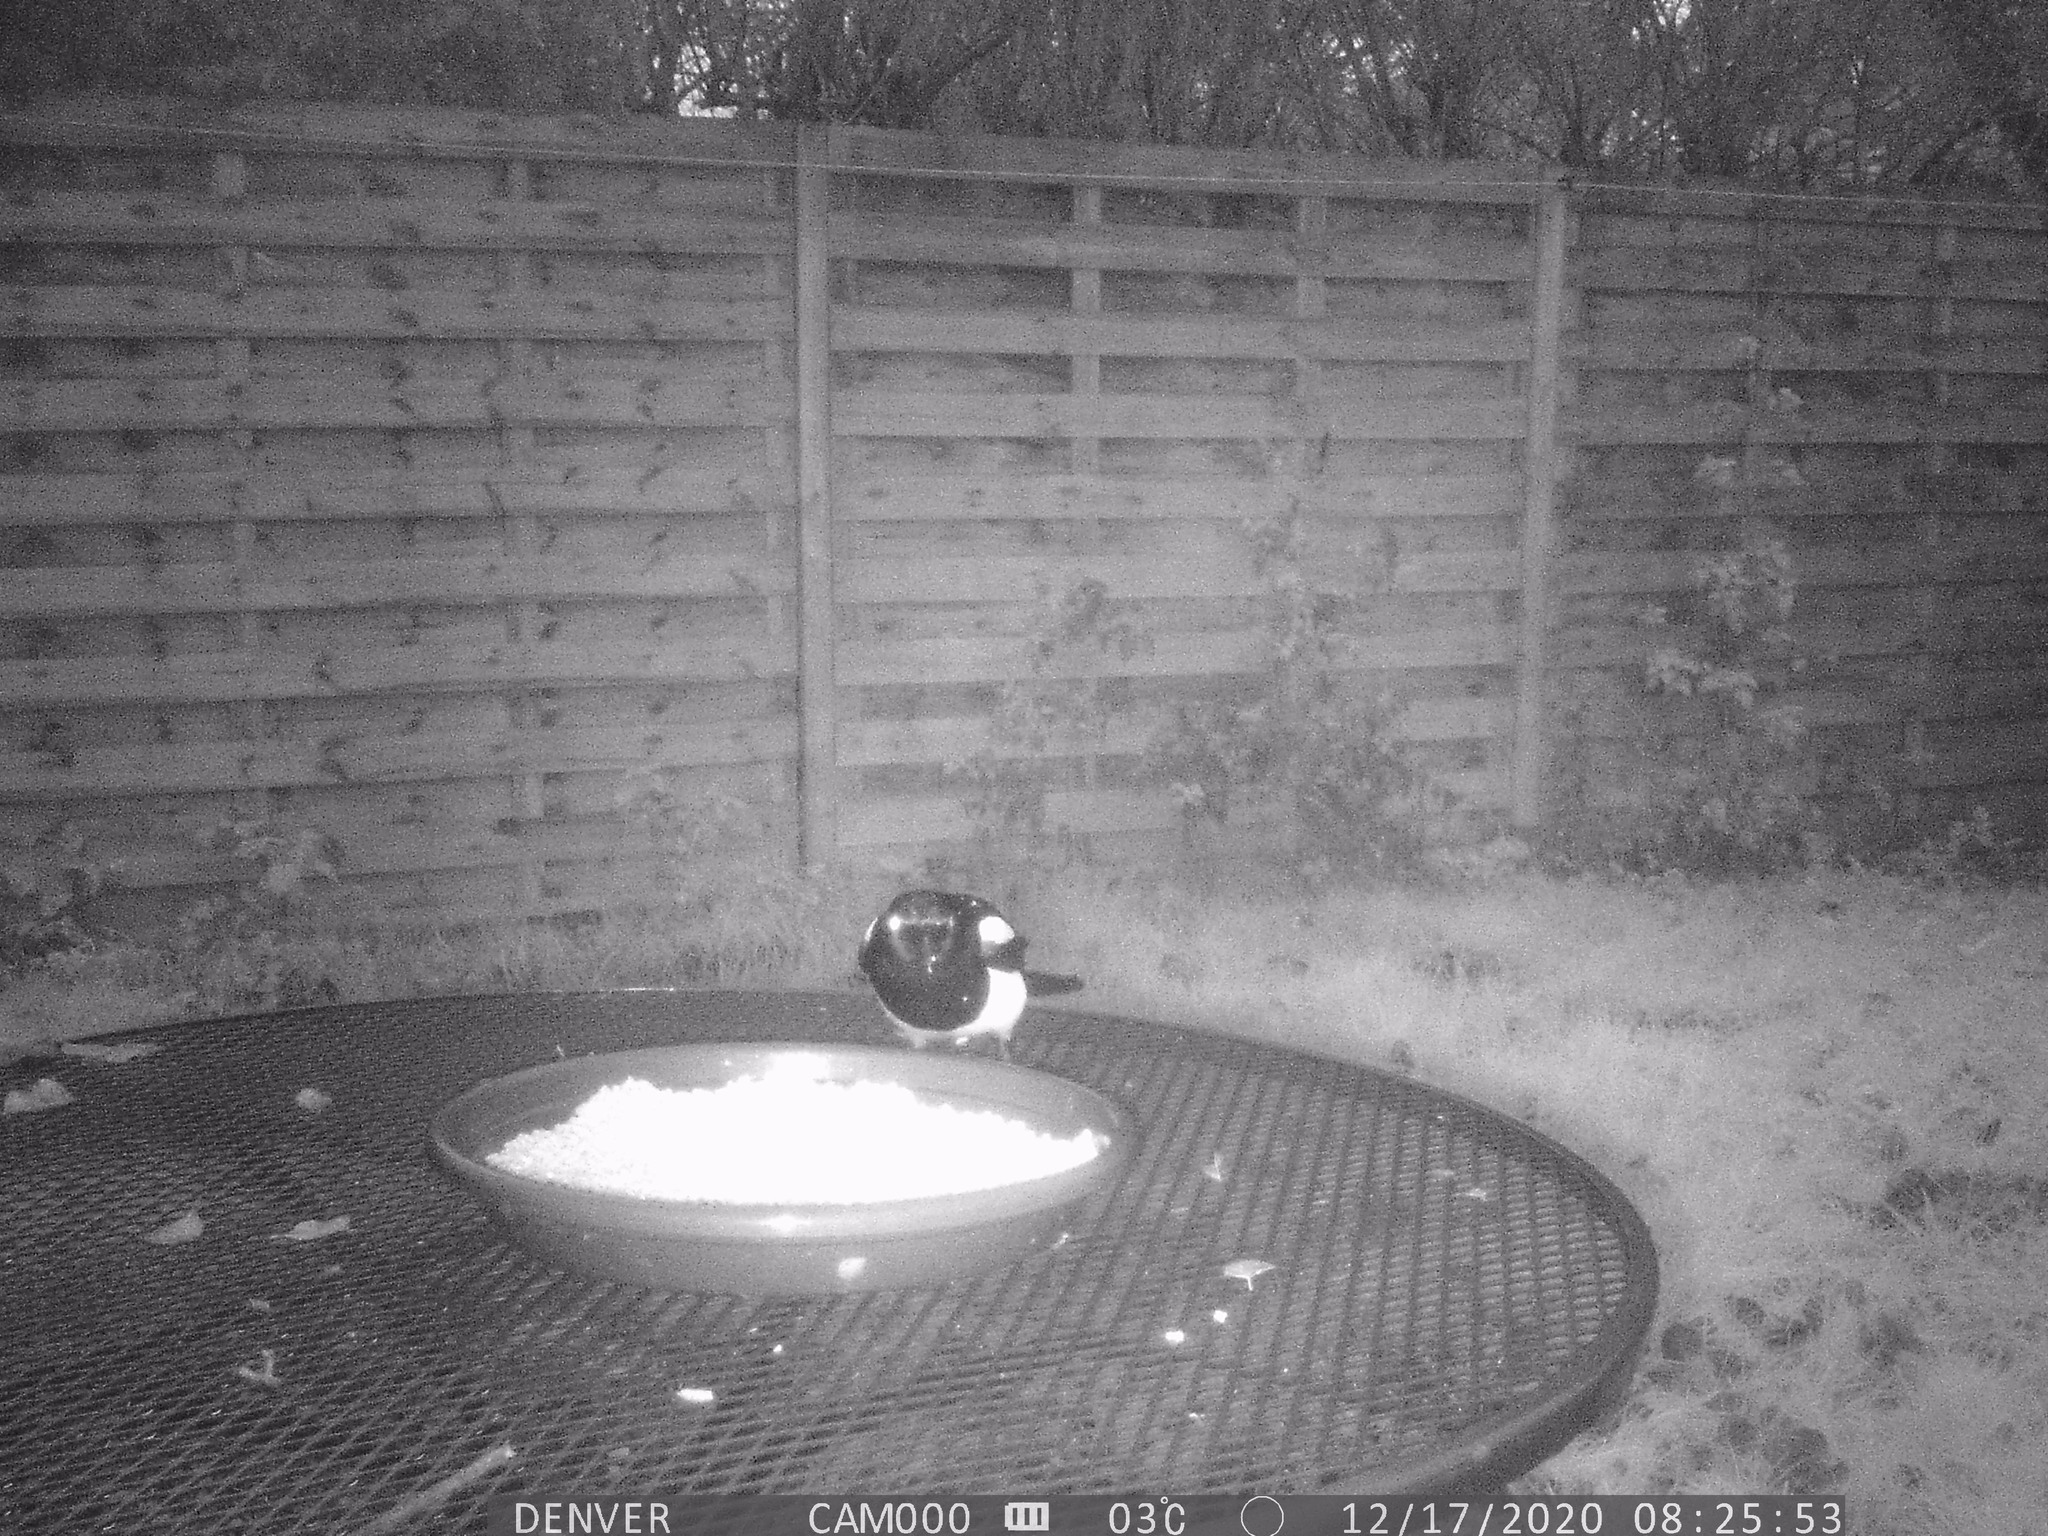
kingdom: Animalia
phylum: Chordata
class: Aves
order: Passeriformes
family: Corvidae
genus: Pica
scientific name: Pica pica
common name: Eurasian magpie
